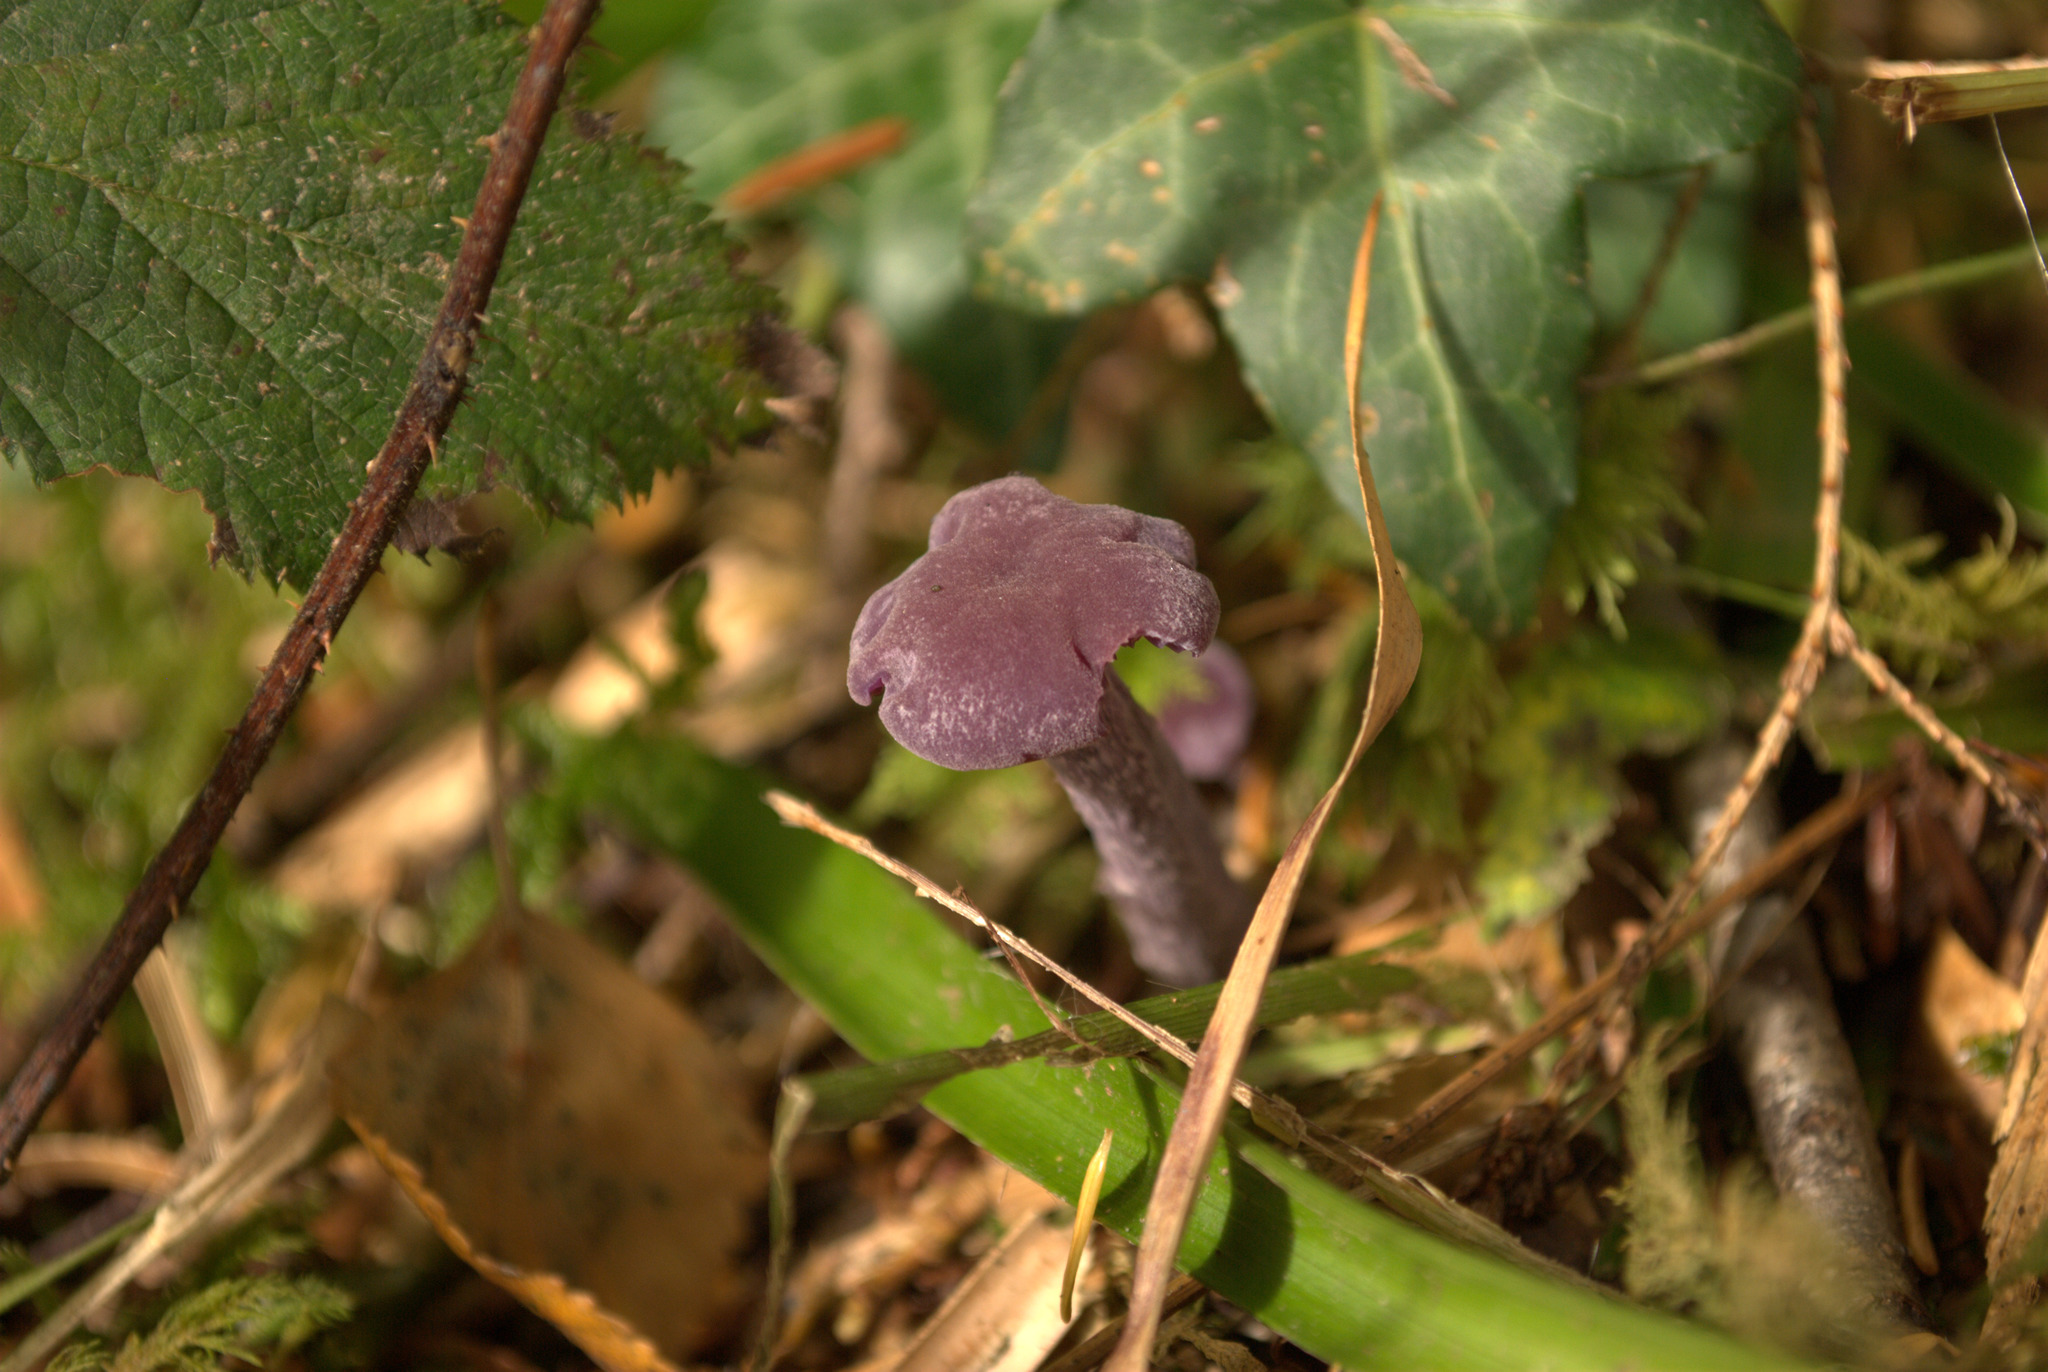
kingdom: Fungi
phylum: Basidiomycota
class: Agaricomycetes
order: Agaricales
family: Hydnangiaceae
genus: Laccaria
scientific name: Laccaria amethystina
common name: Amethyst deceiver
